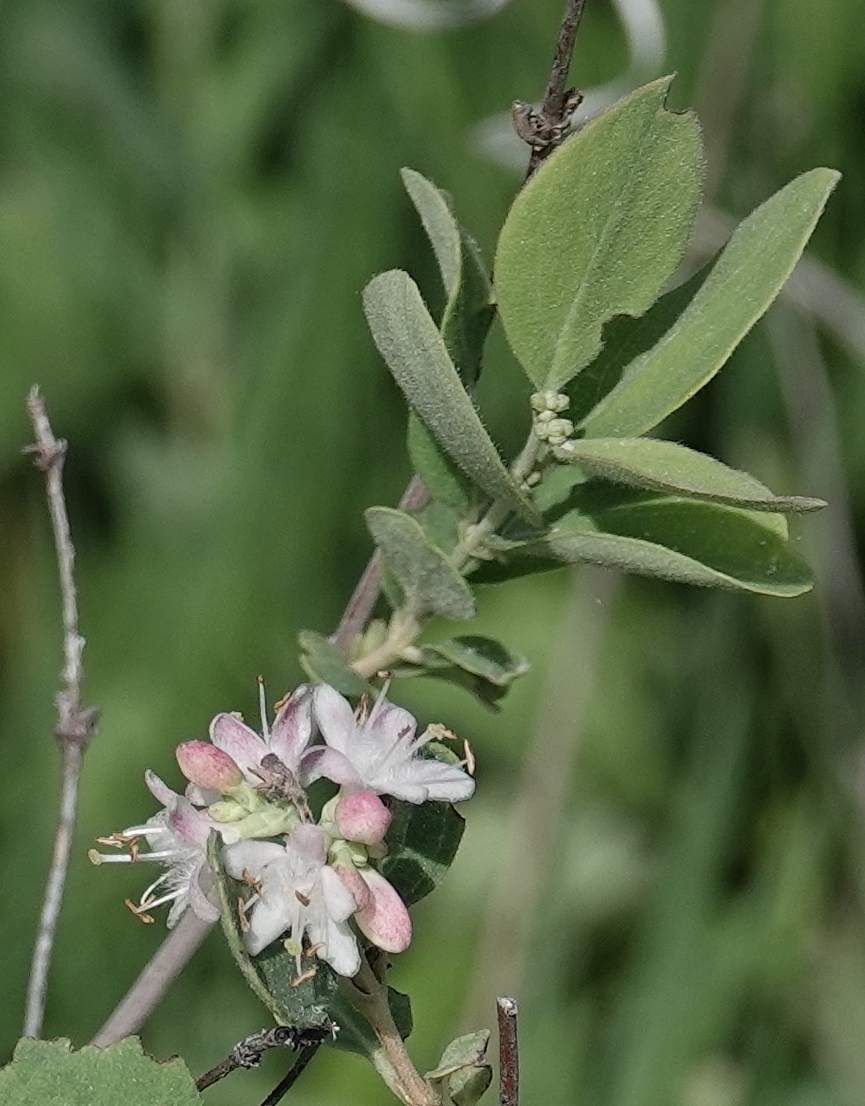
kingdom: Plantae
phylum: Tracheophyta
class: Magnoliopsida
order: Dipsacales
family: Caprifoliaceae
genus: Symphoricarpos
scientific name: Symphoricarpos occidentalis
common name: Wolfberry
